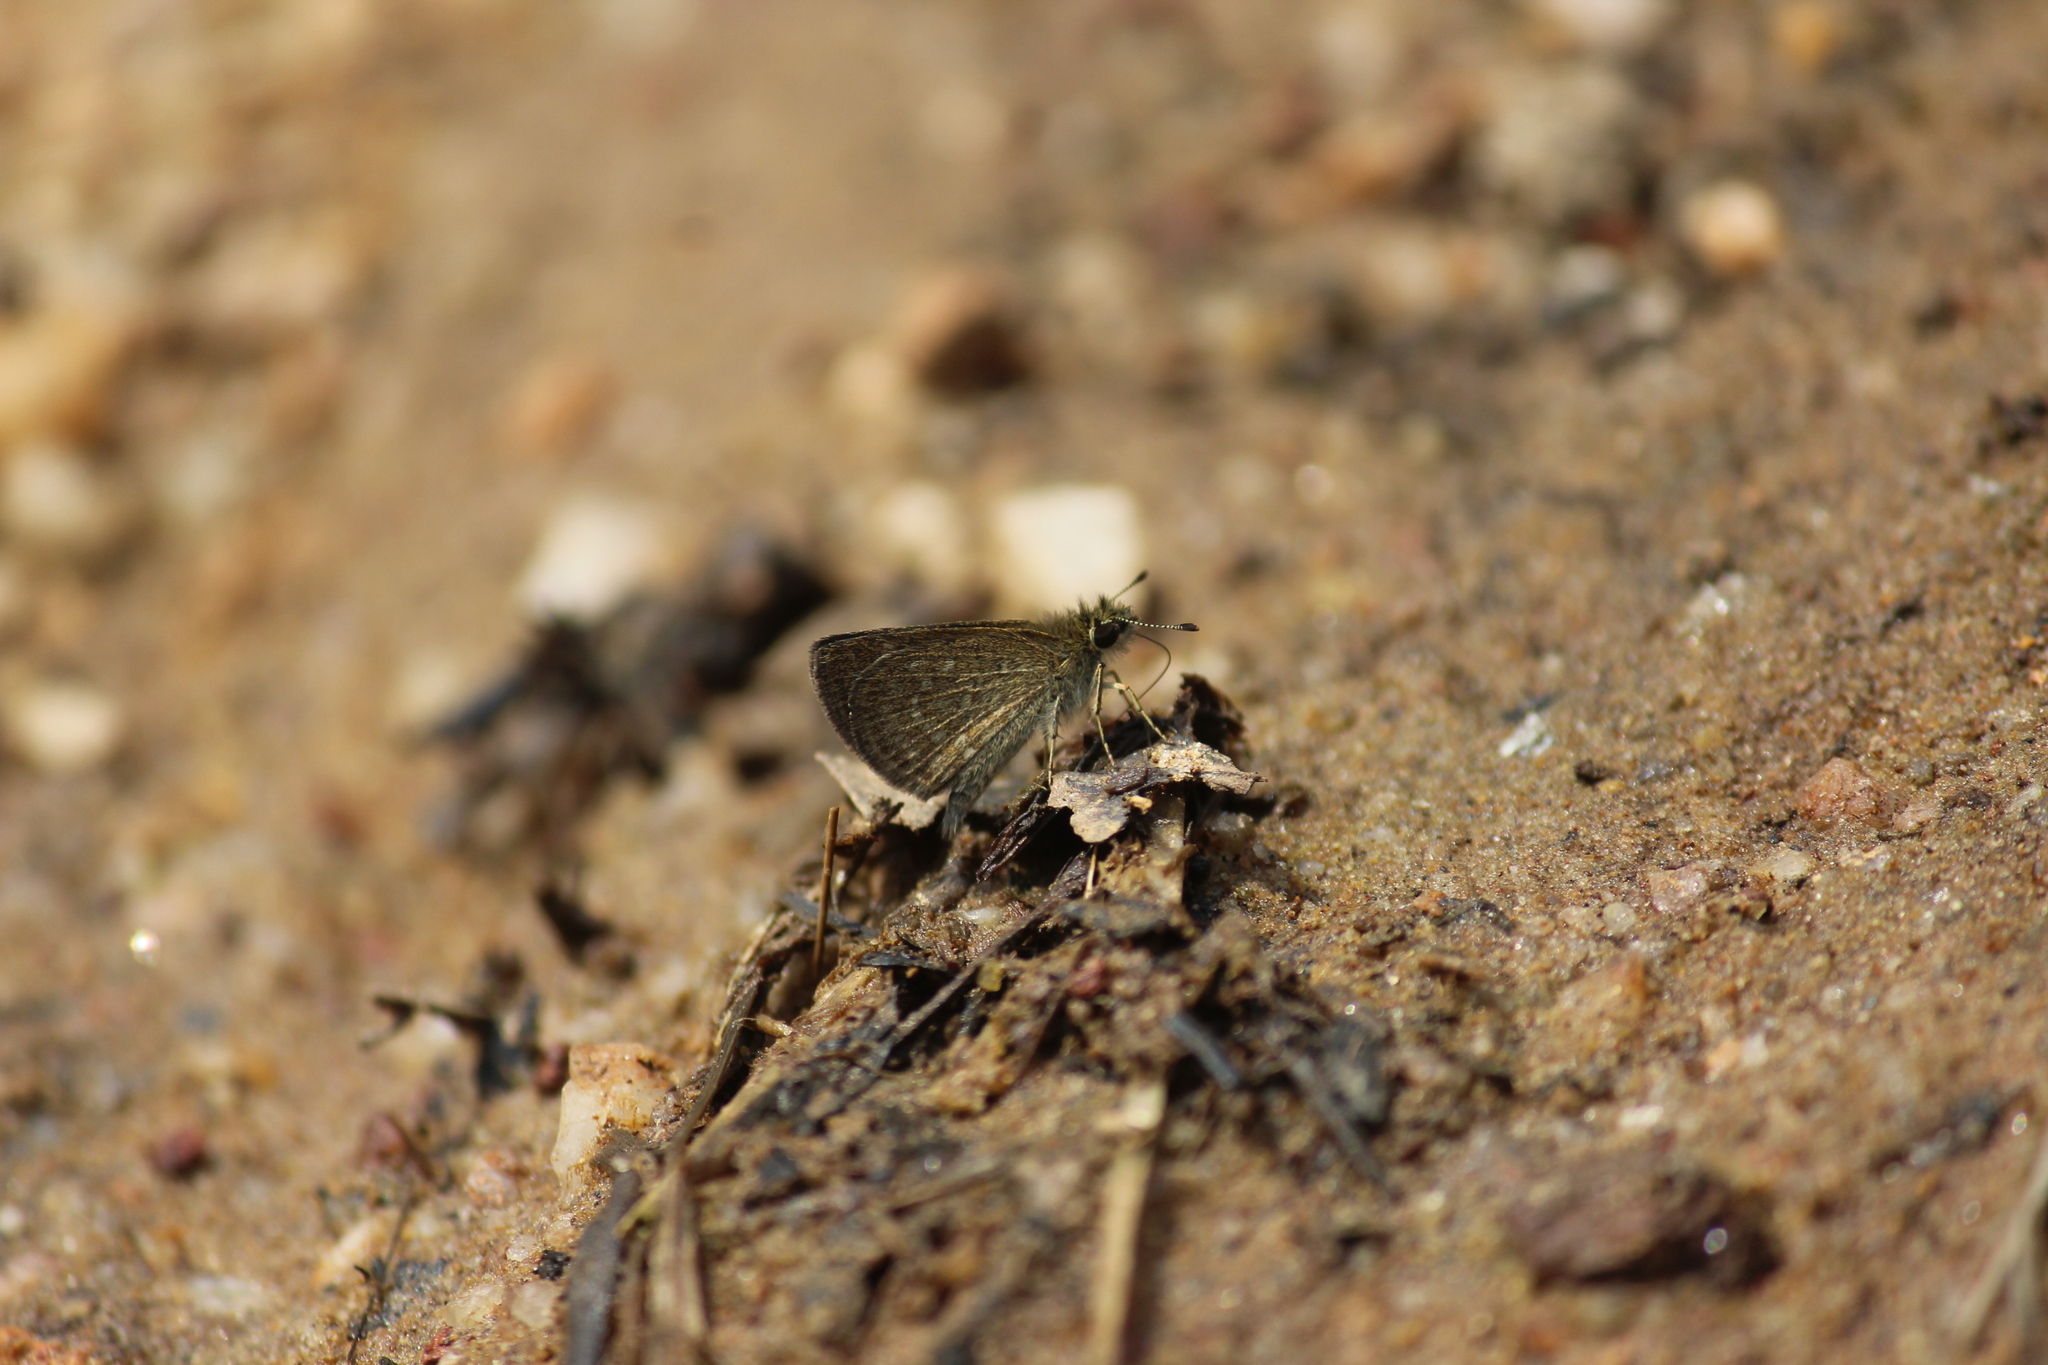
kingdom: Animalia
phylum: Arthropoda
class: Insecta
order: Lepidoptera
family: Hesperiidae
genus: Aeromachus
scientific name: Aeromachus pygmaeus
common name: Pygmy scrub hopper
